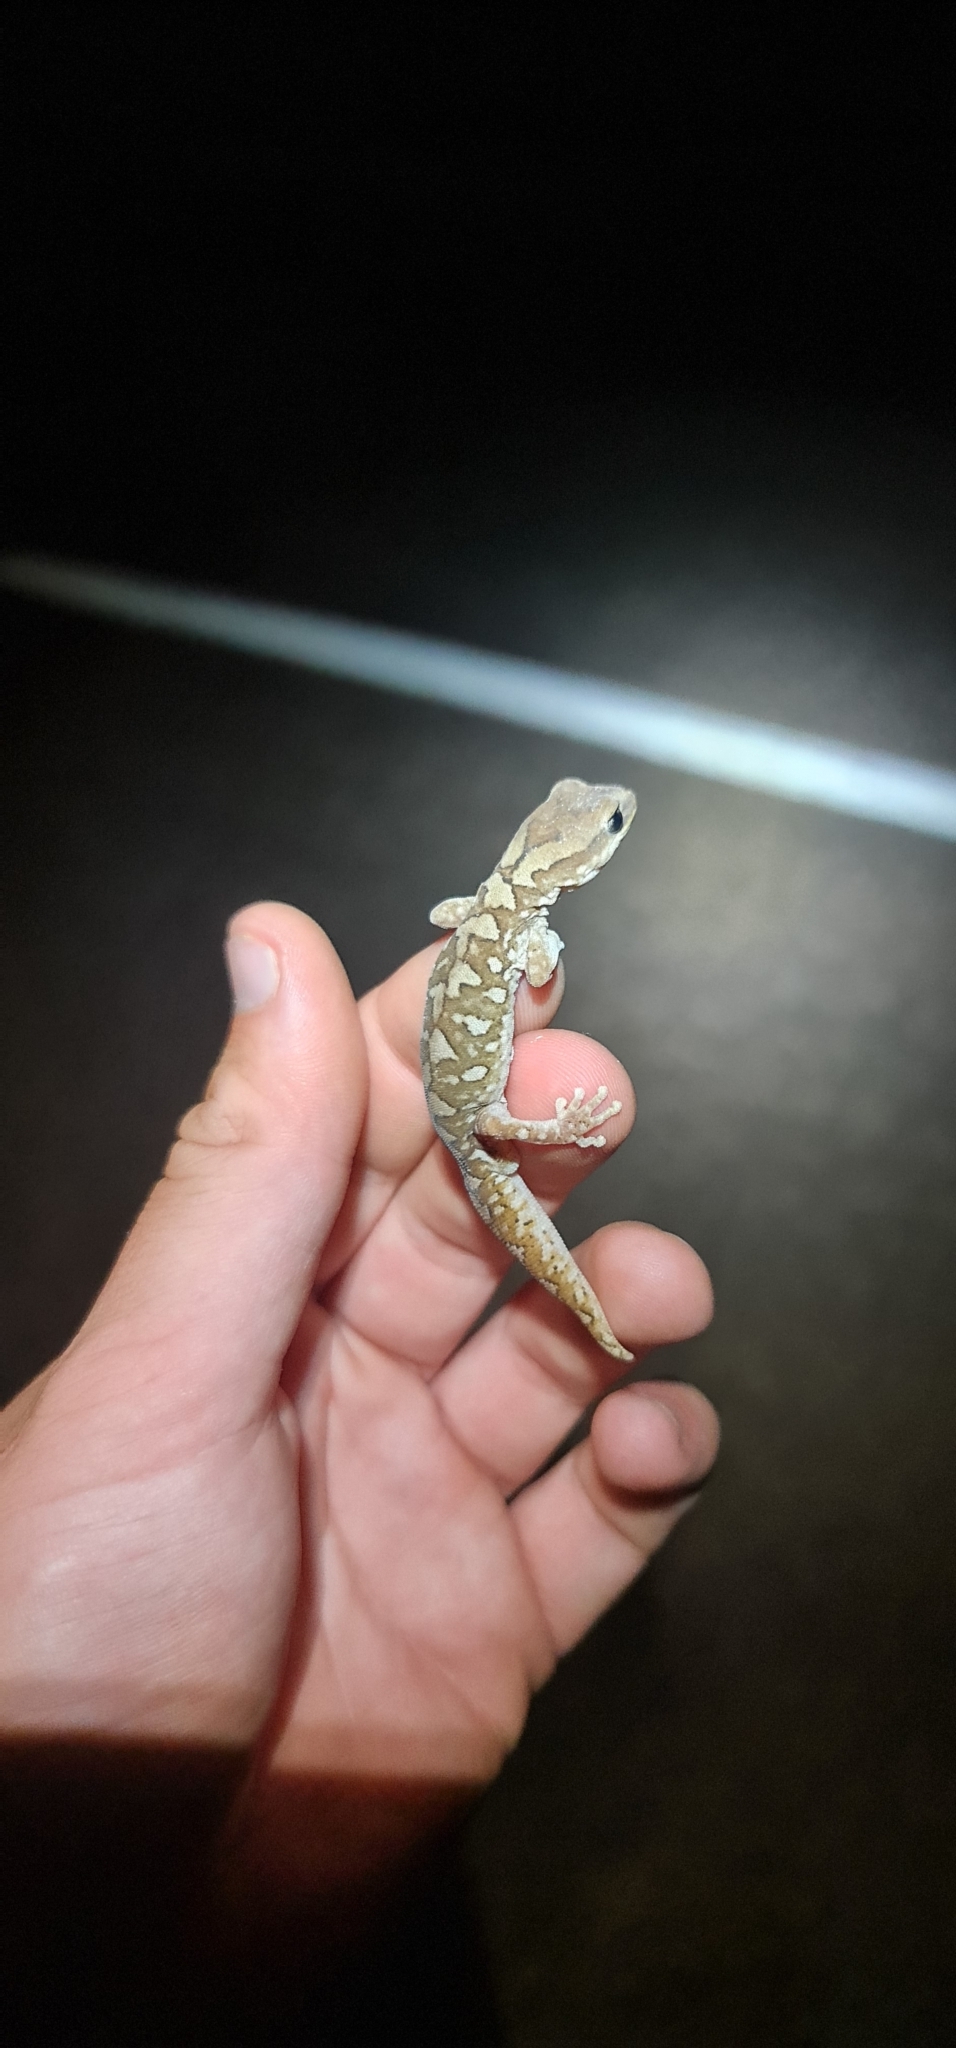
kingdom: Animalia
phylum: Chordata
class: Squamata
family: Diplodactylidae
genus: Diplodactylus
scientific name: Diplodactylus furcosus
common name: Ranges stone gecko
